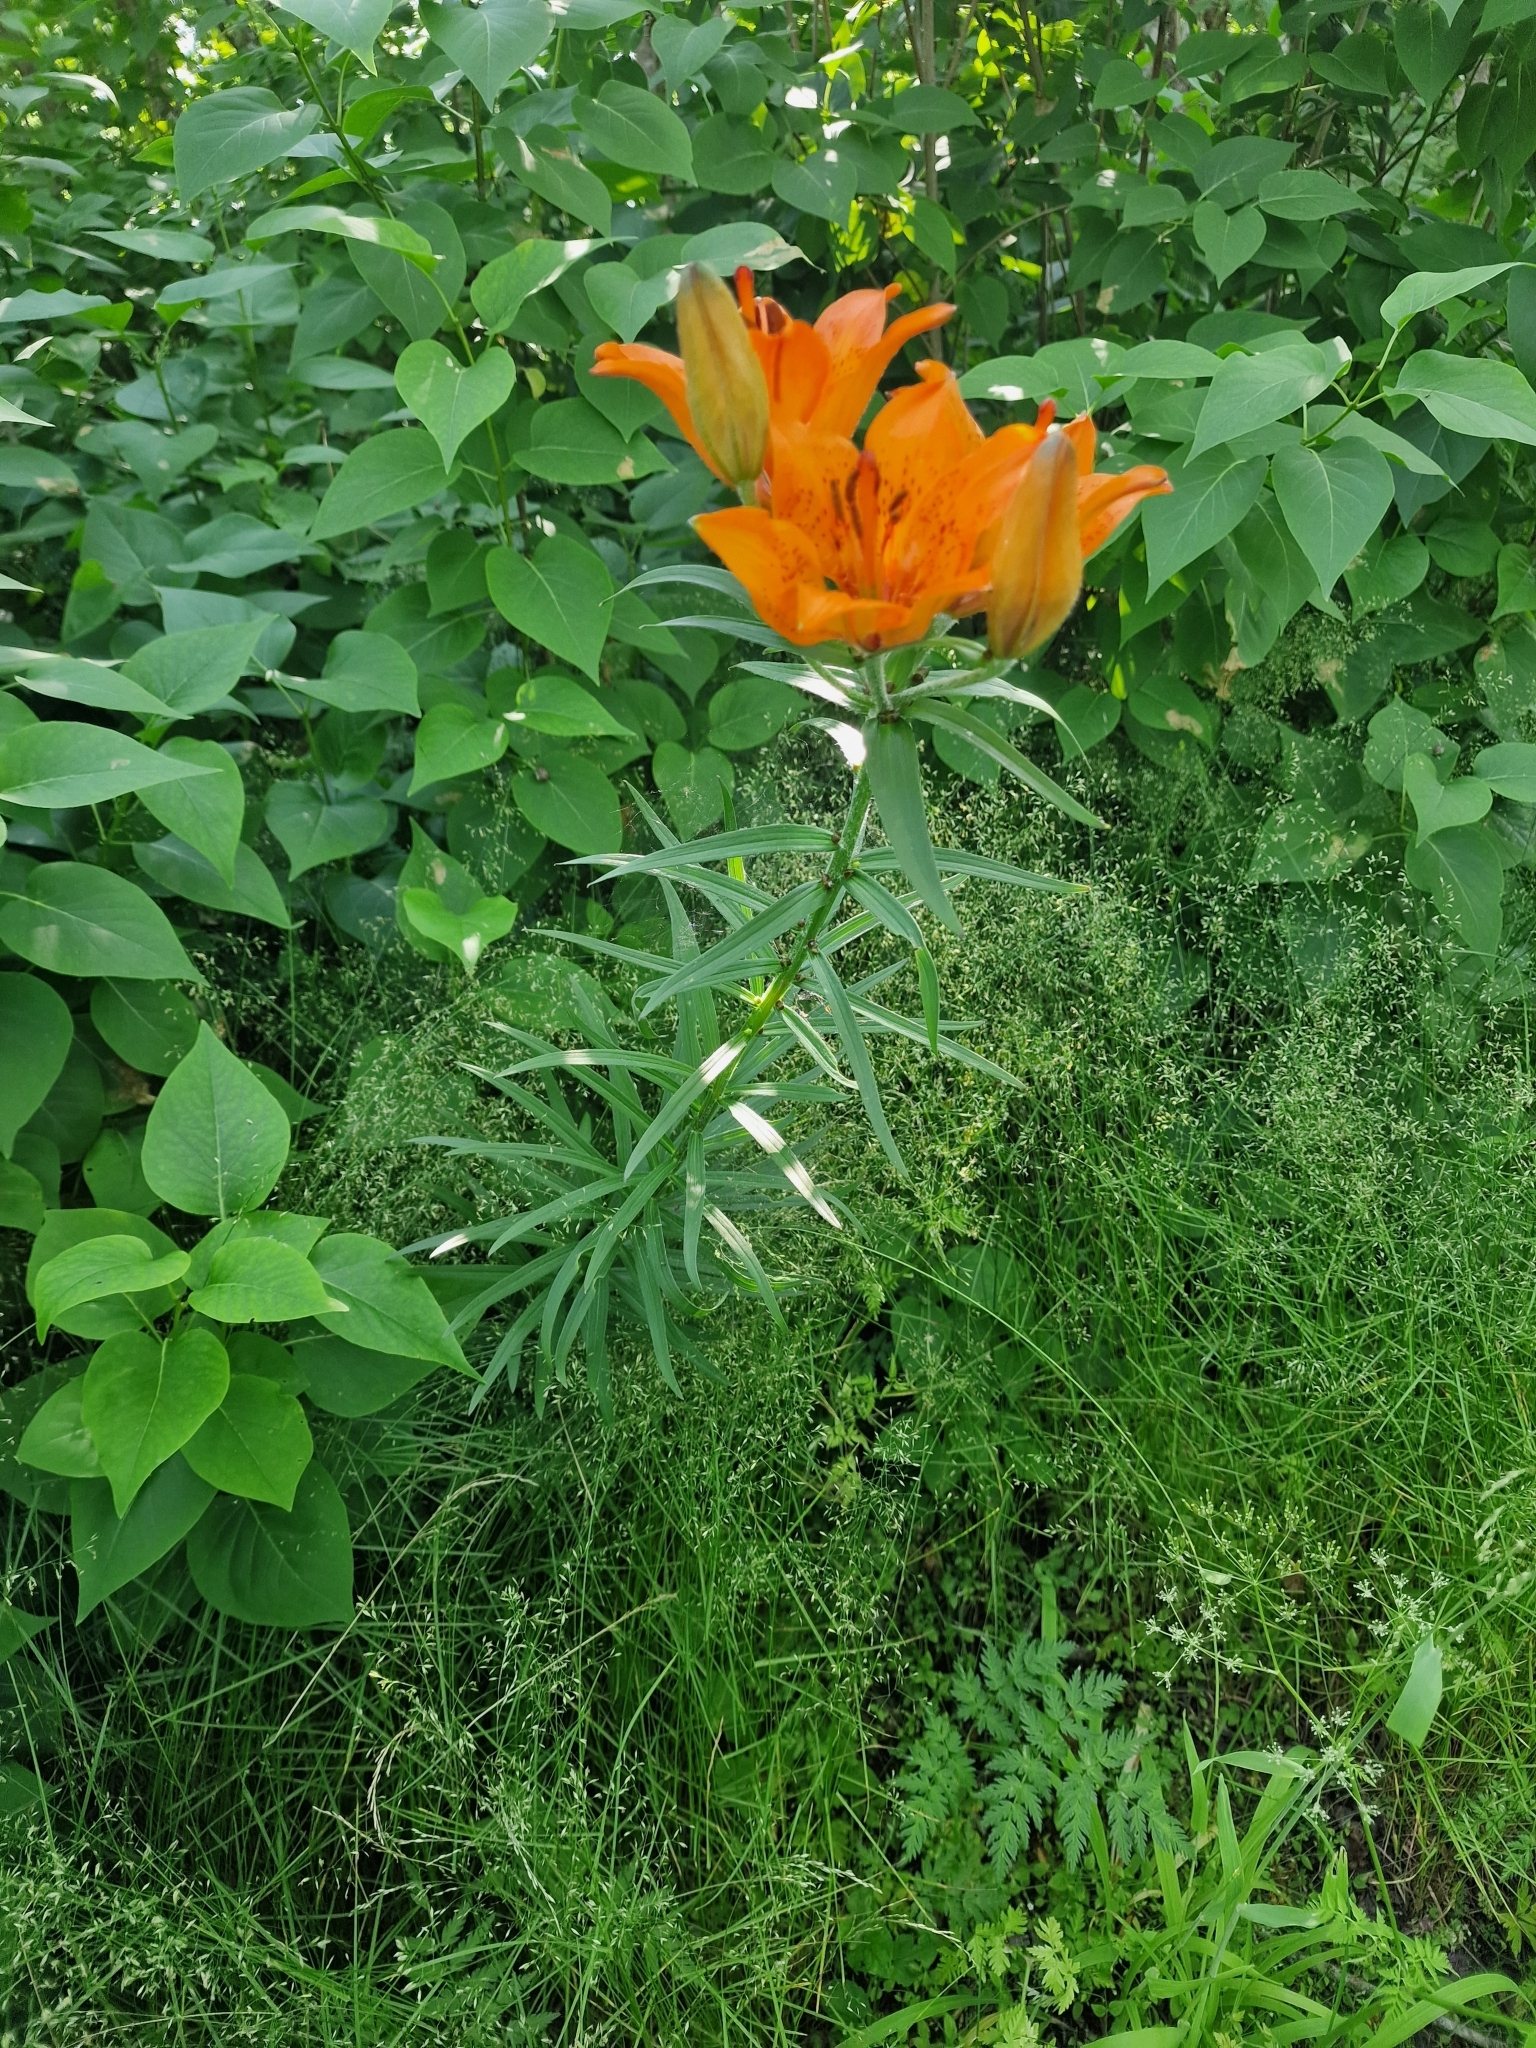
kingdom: Plantae
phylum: Tracheophyta
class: Liliopsida
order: Liliales
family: Liliaceae
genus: Lilium
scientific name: Lilium bulbiferum
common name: Orange lily
